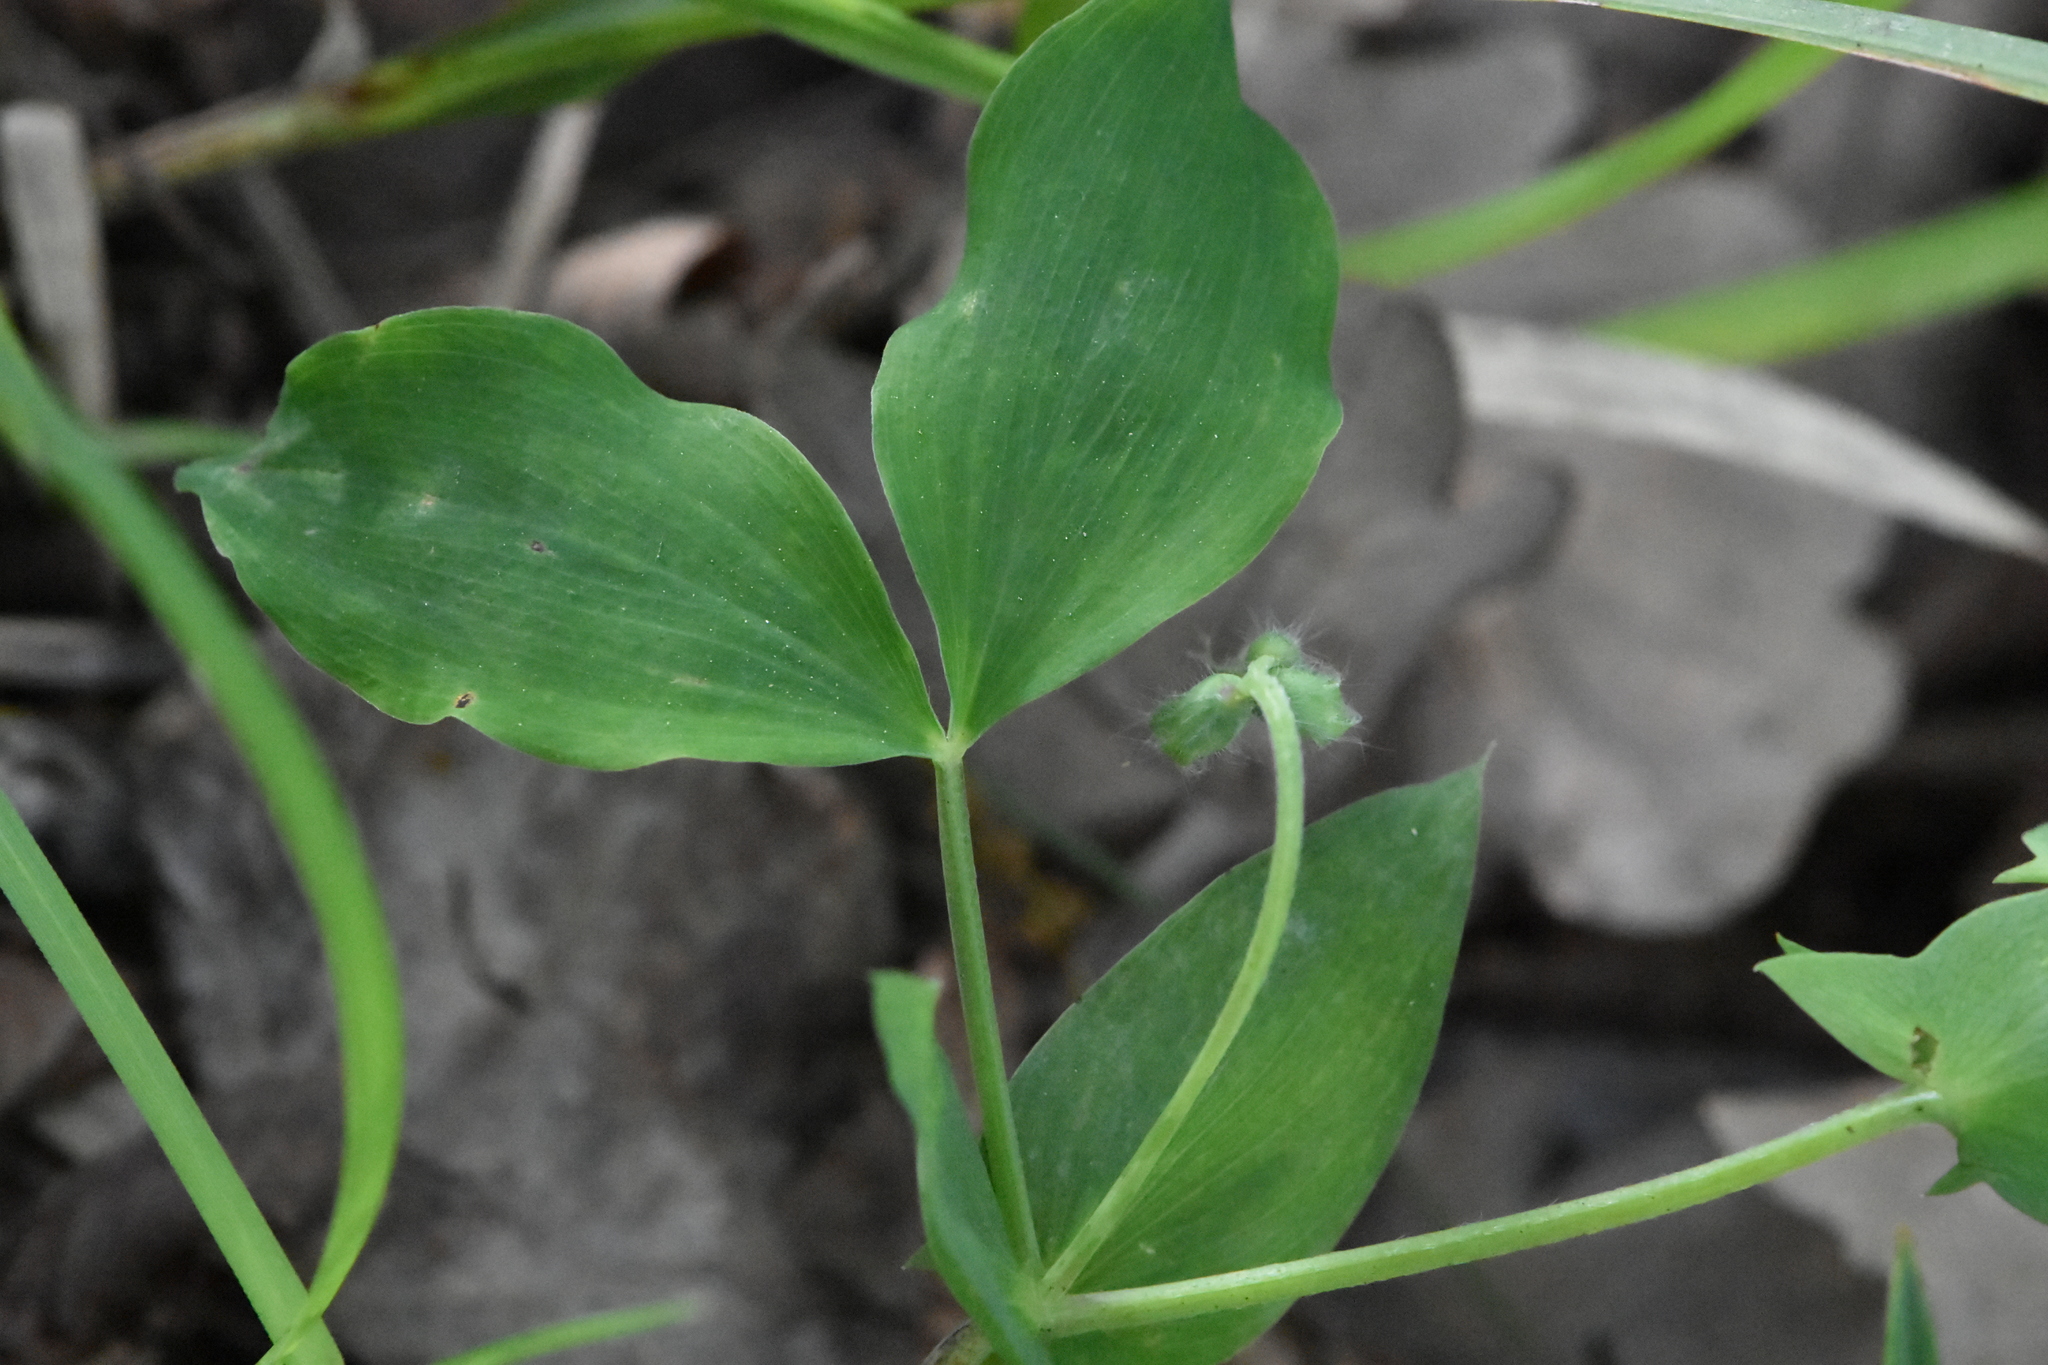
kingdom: Plantae
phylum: Tracheophyta
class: Magnoliopsida
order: Fabales
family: Fabaceae
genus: Lathyrus
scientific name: Lathyrus laxiflorus
